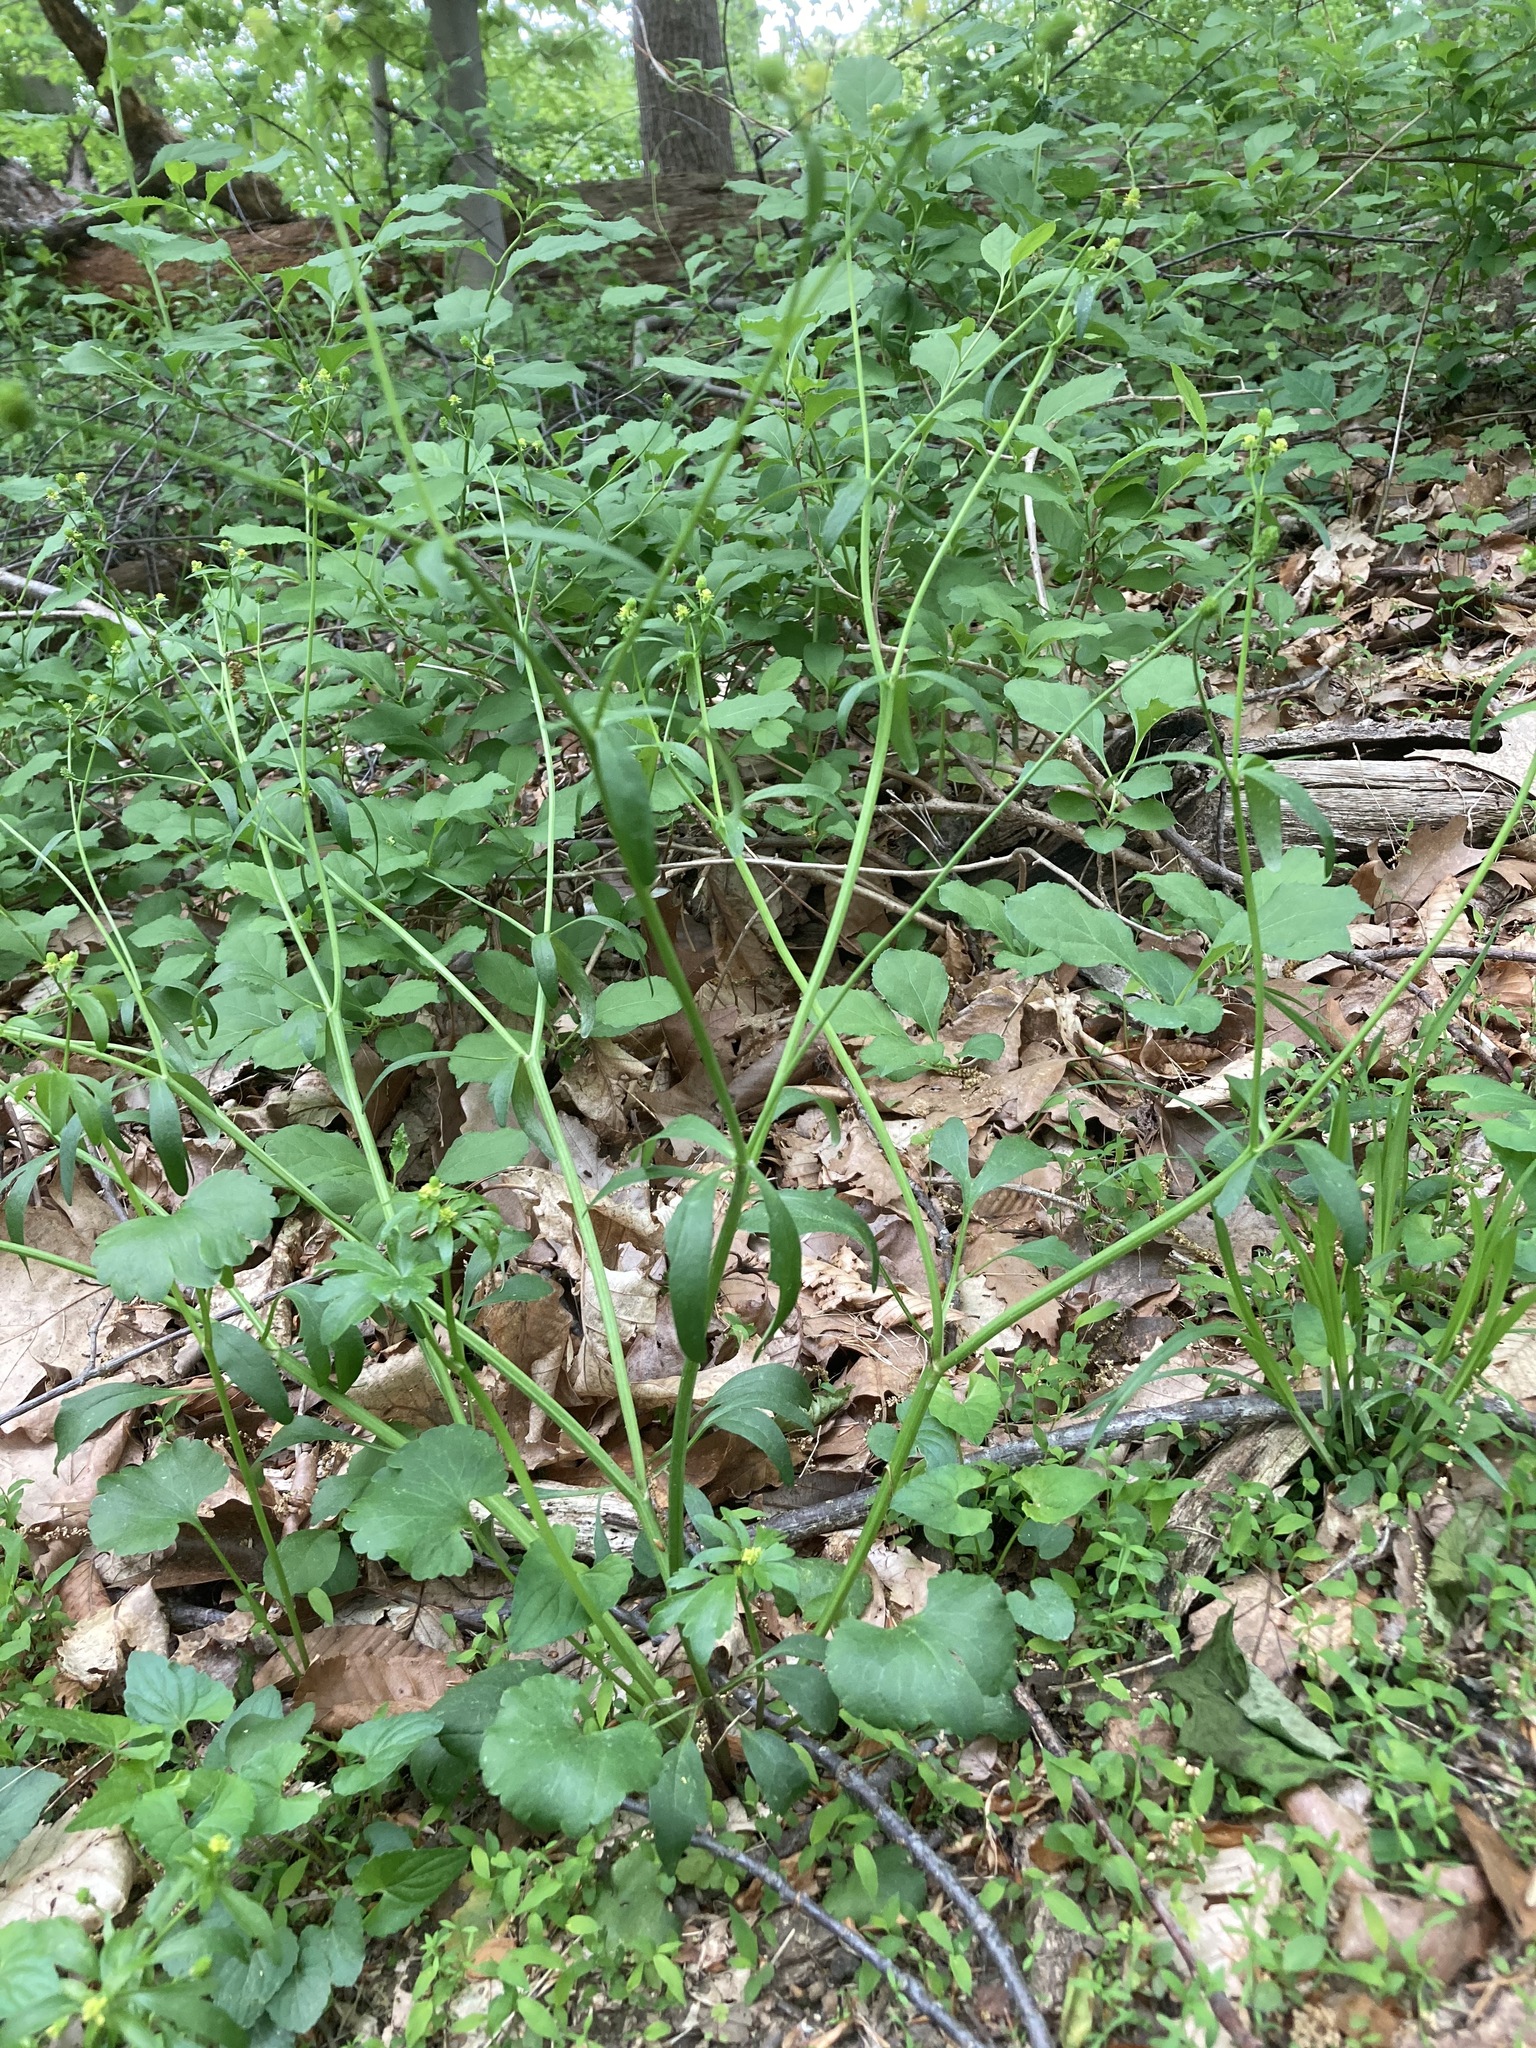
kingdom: Plantae
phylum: Tracheophyta
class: Magnoliopsida
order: Ranunculales
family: Ranunculaceae
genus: Ranunculus
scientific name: Ranunculus abortivus
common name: Early wood buttercup
